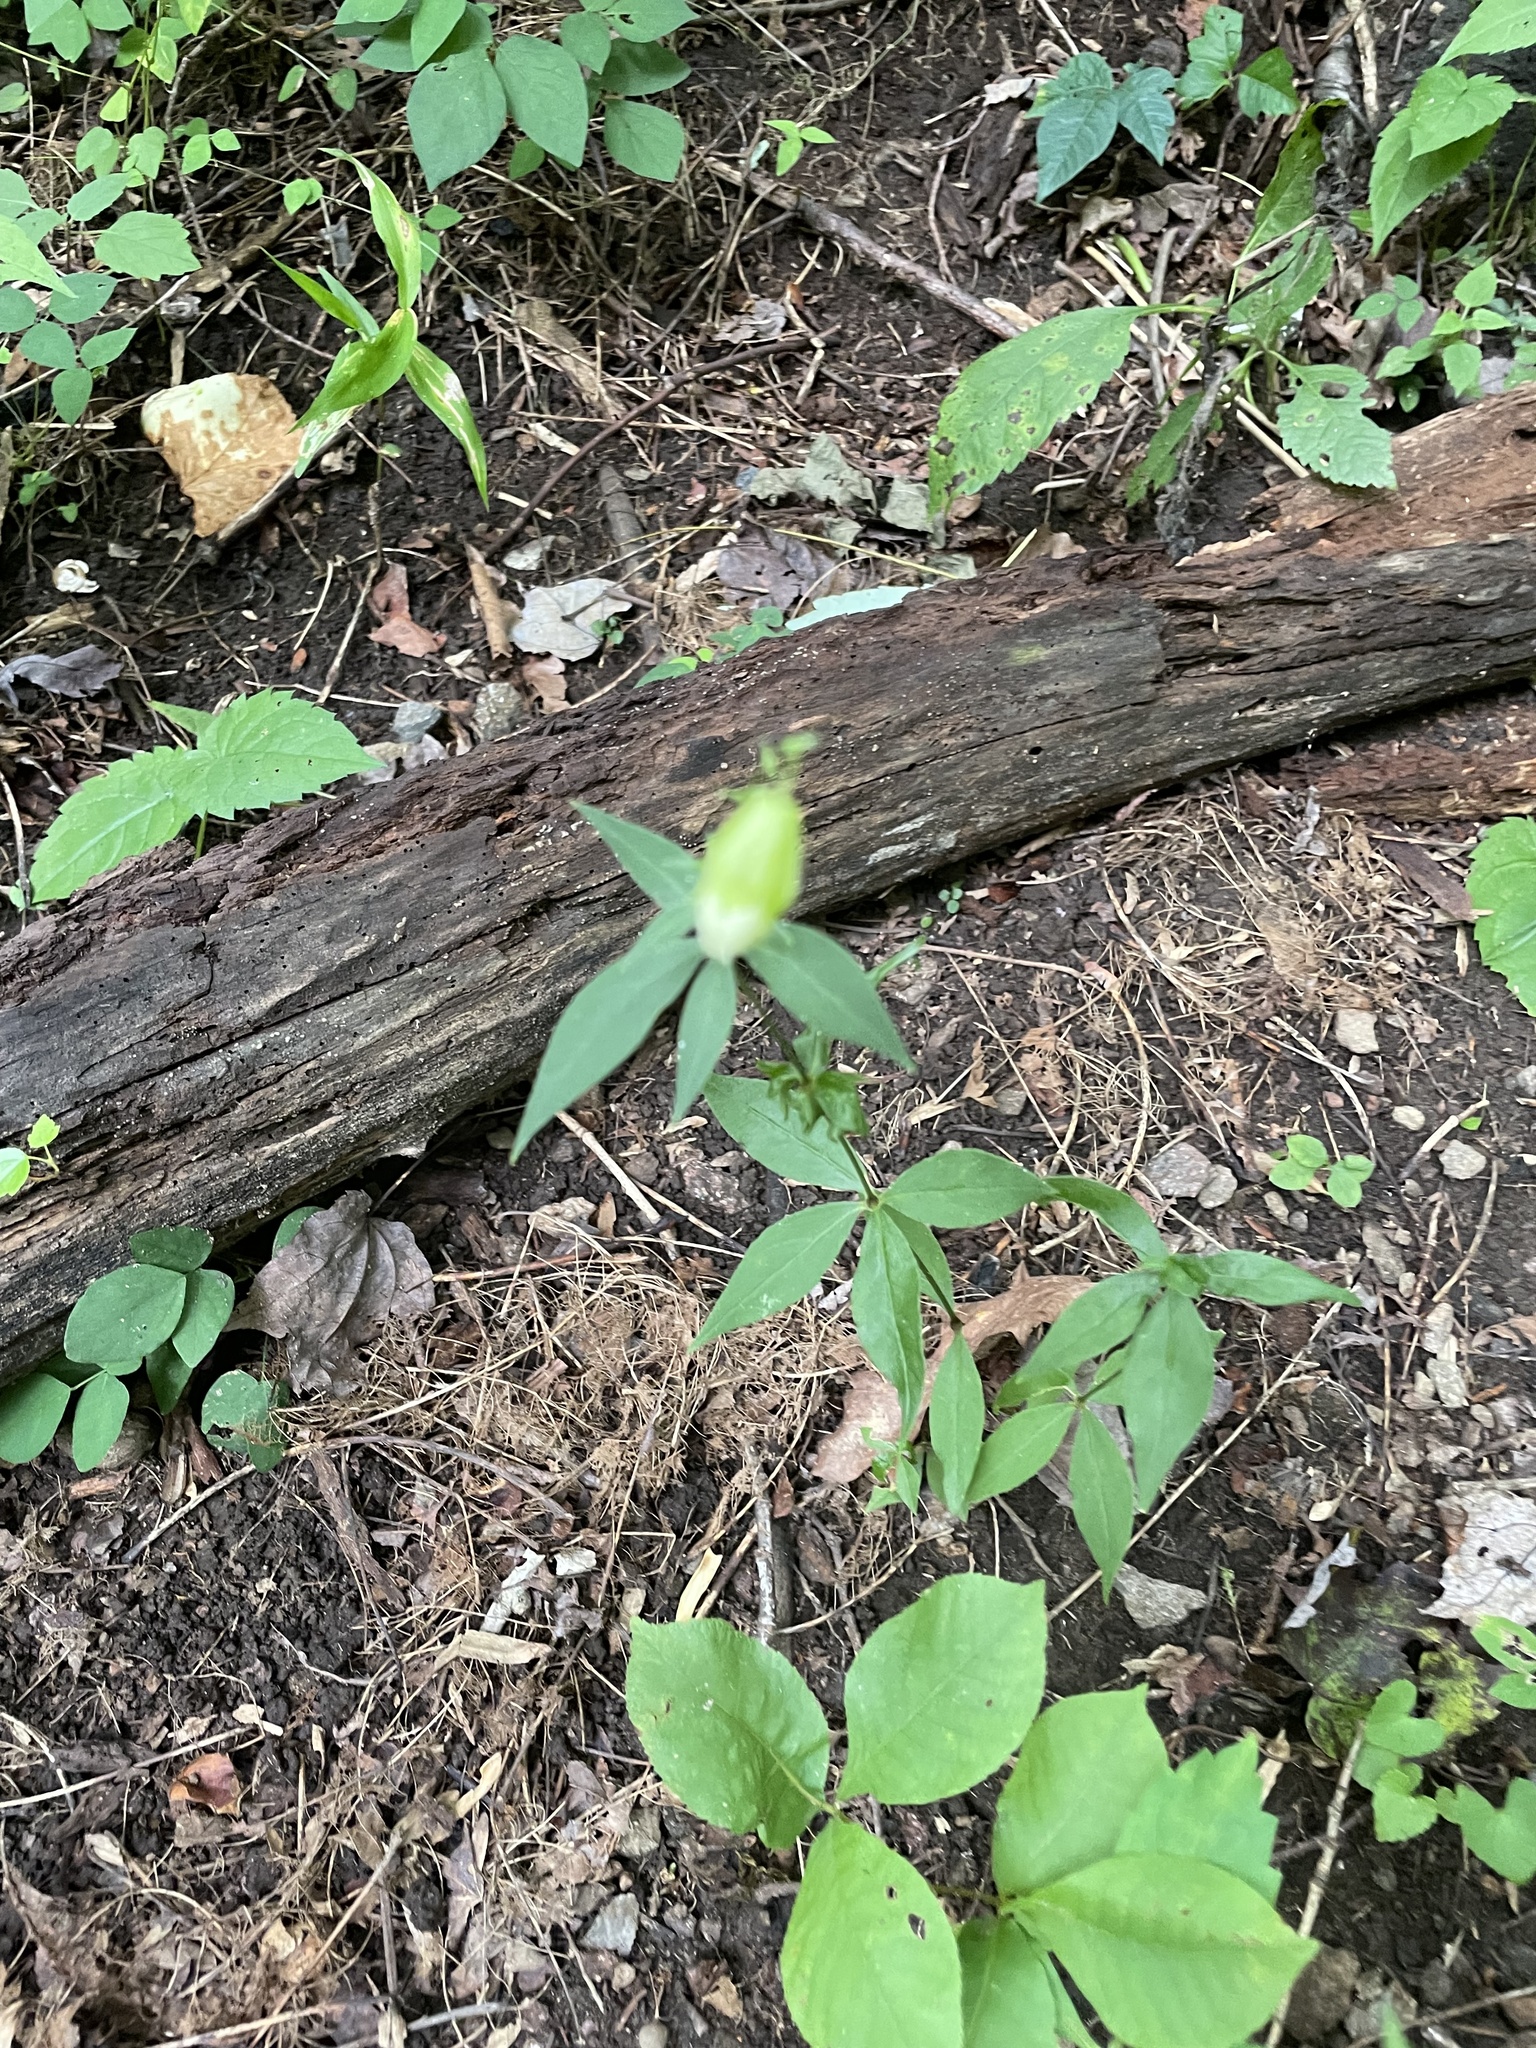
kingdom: Plantae
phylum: Tracheophyta
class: Magnoliopsida
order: Caryophyllales
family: Caryophyllaceae
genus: Silene
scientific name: Silene stellata
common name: Starry campion
